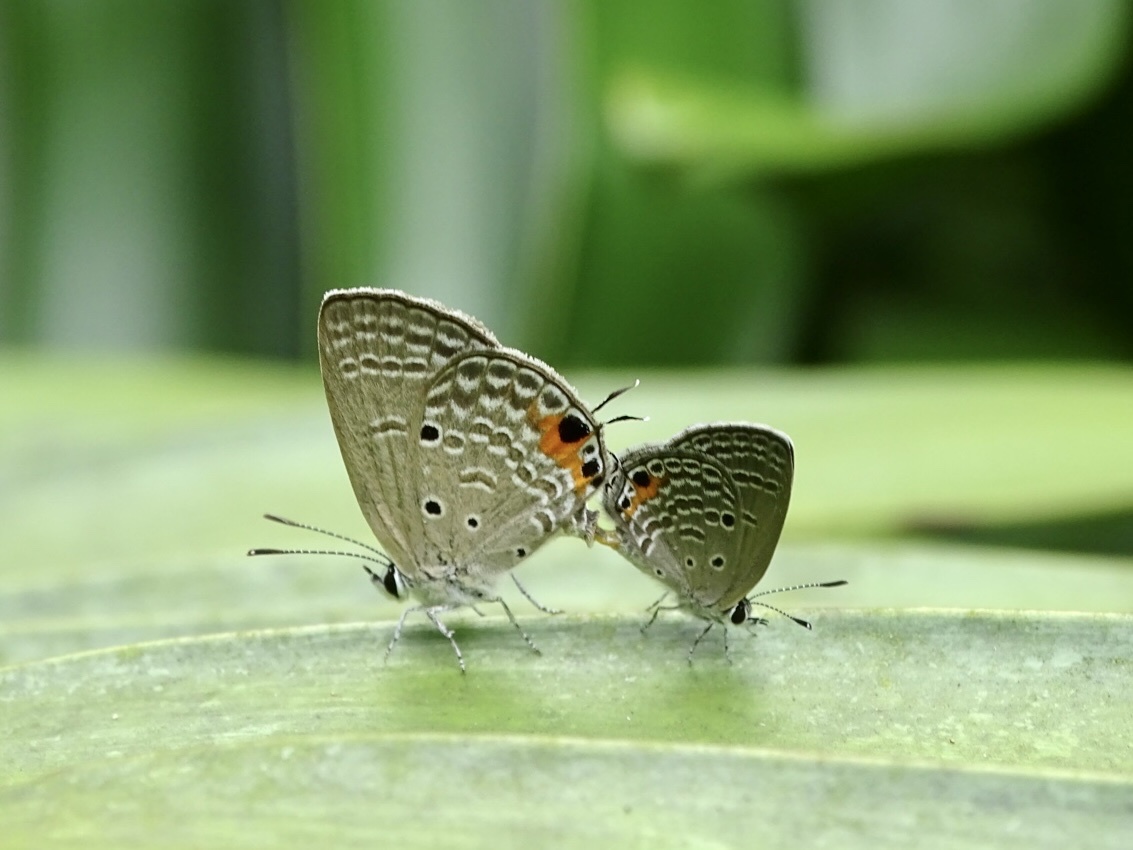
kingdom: Animalia
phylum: Arthropoda
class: Insecta
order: Lepidoptera
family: Lycaenidae
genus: Luthrodes
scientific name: Luthrodes pandava
